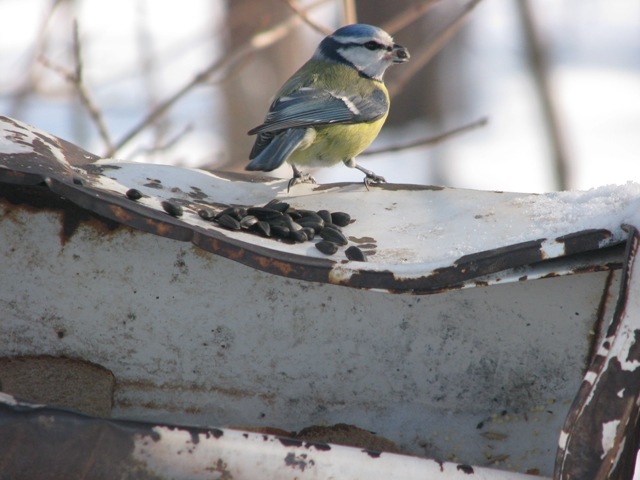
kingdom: Animalia
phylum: Chordata
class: Aves
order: Passeriformes
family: Paridae
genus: Cyanistes
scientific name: Cyanistes caeruleus
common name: Eurasian blue tit
